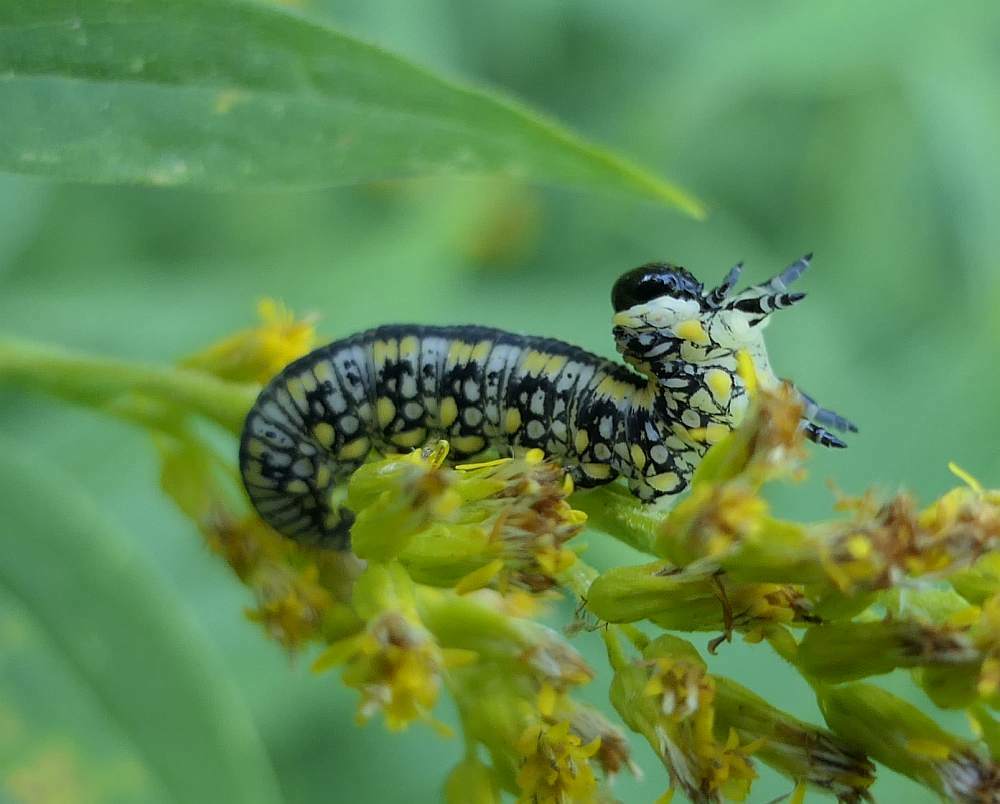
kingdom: Animalia
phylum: Arthropoda
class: Insecta
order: Hymenoptera
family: Diprionidae
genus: Diprion
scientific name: Diprion similis
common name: Pine sawfly
